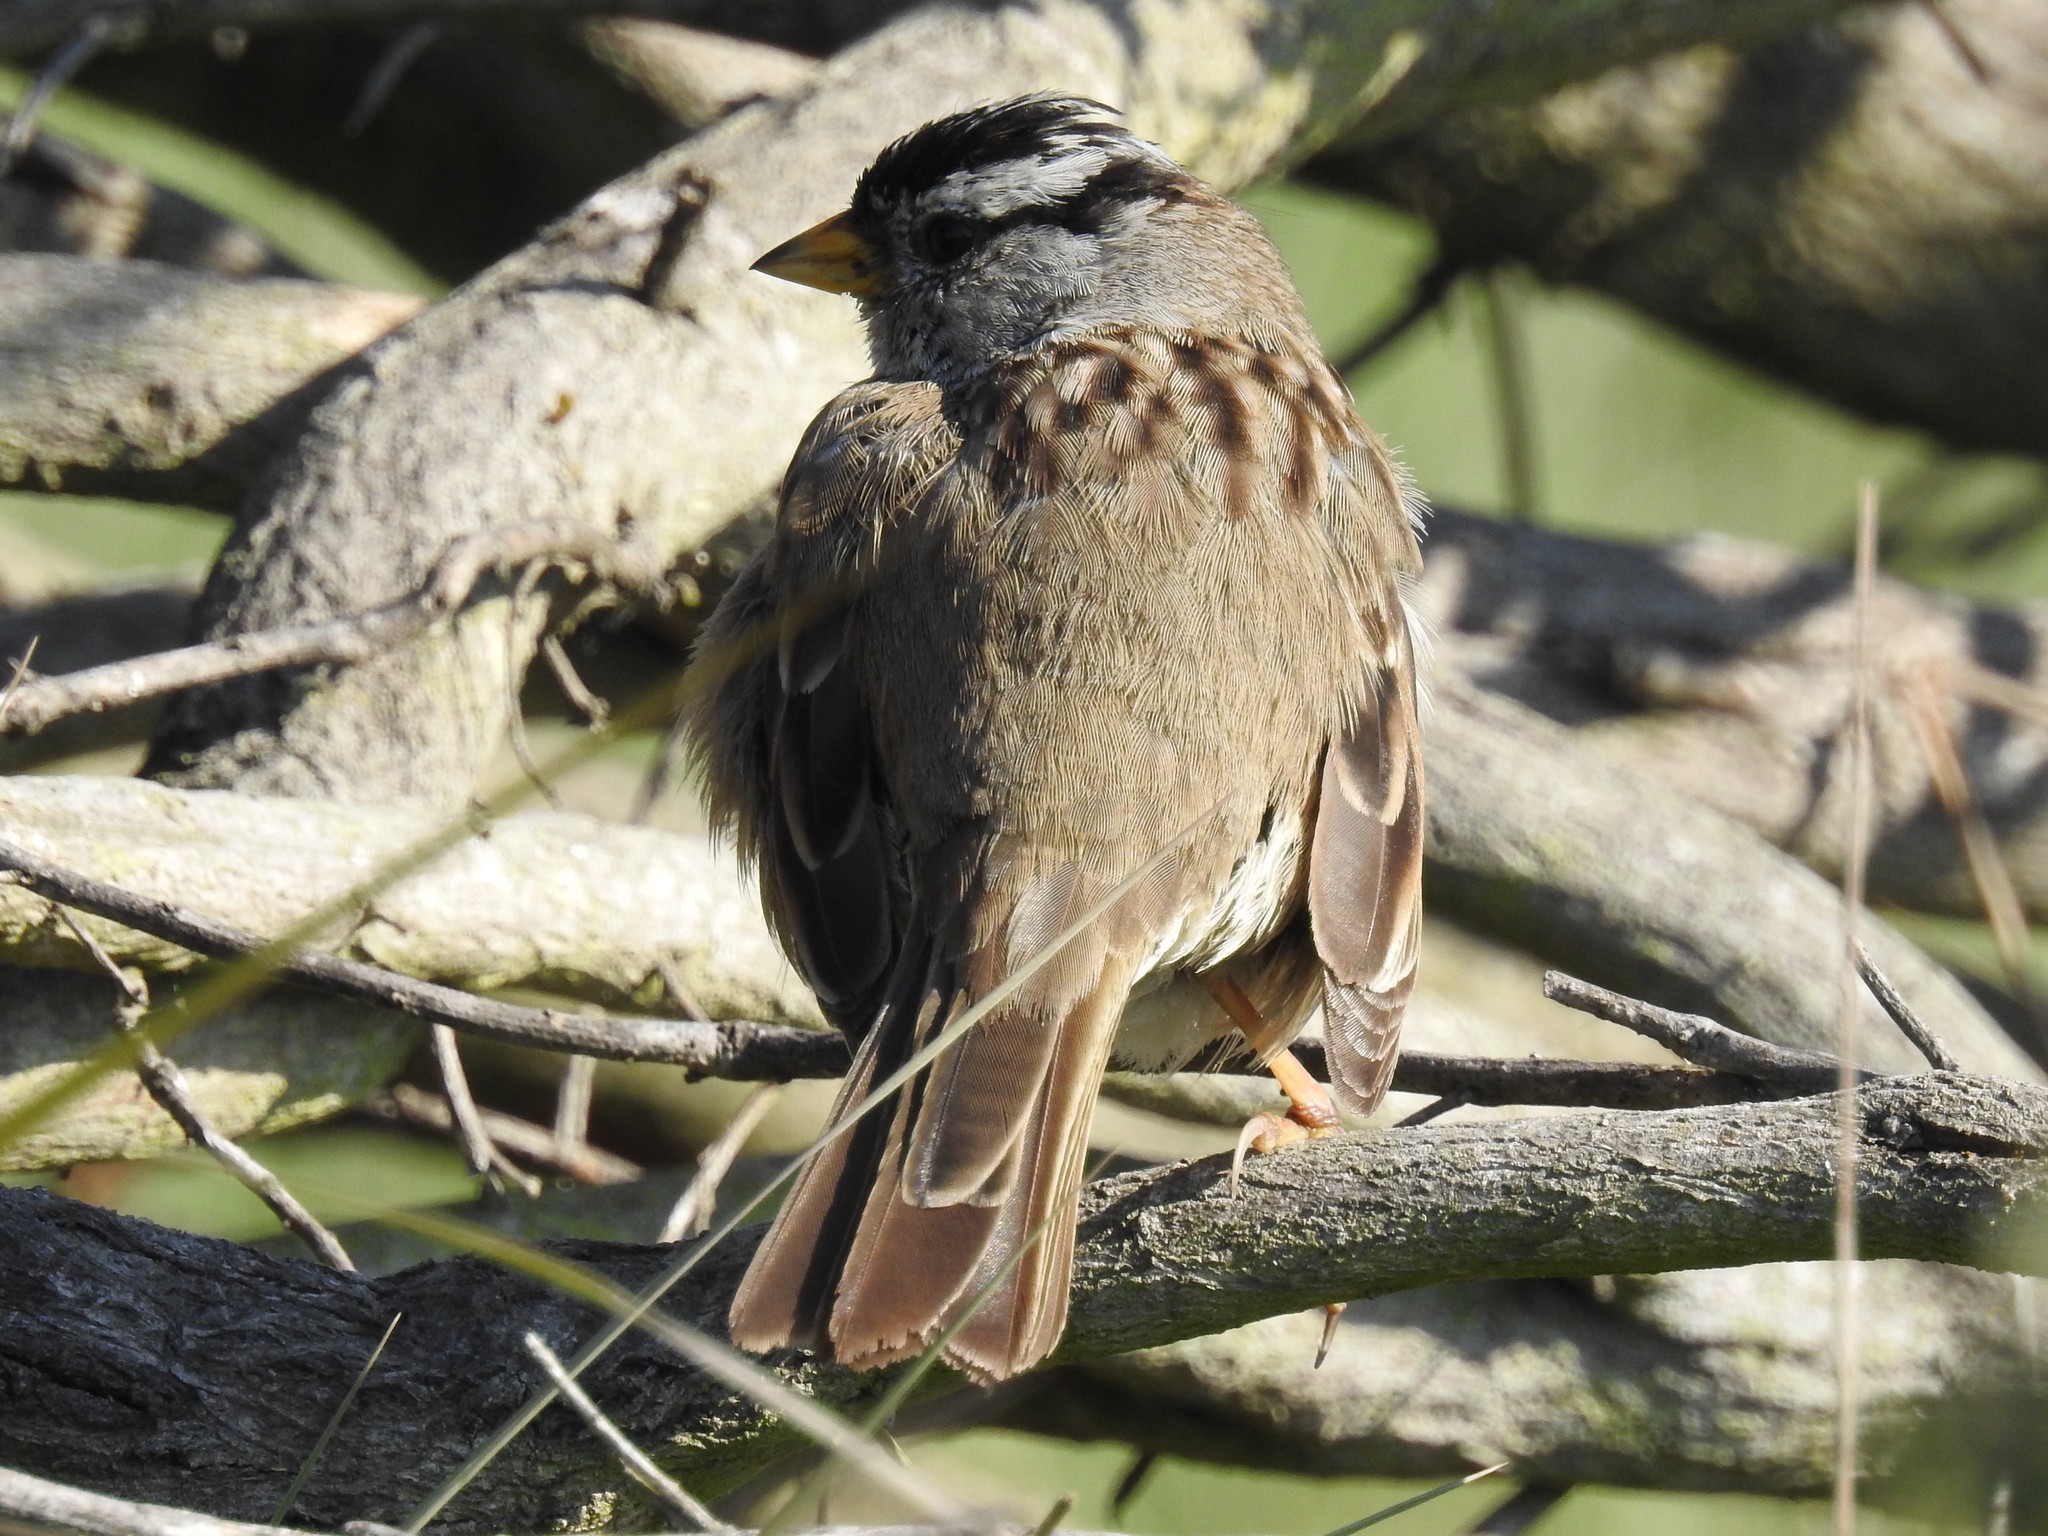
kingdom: Animalia
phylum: Chordata
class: Aves
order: Passeriformes
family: Passerellidae
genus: Zonotrichia
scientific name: Zonotrichia leucophrys
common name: White-crowned sparrow
